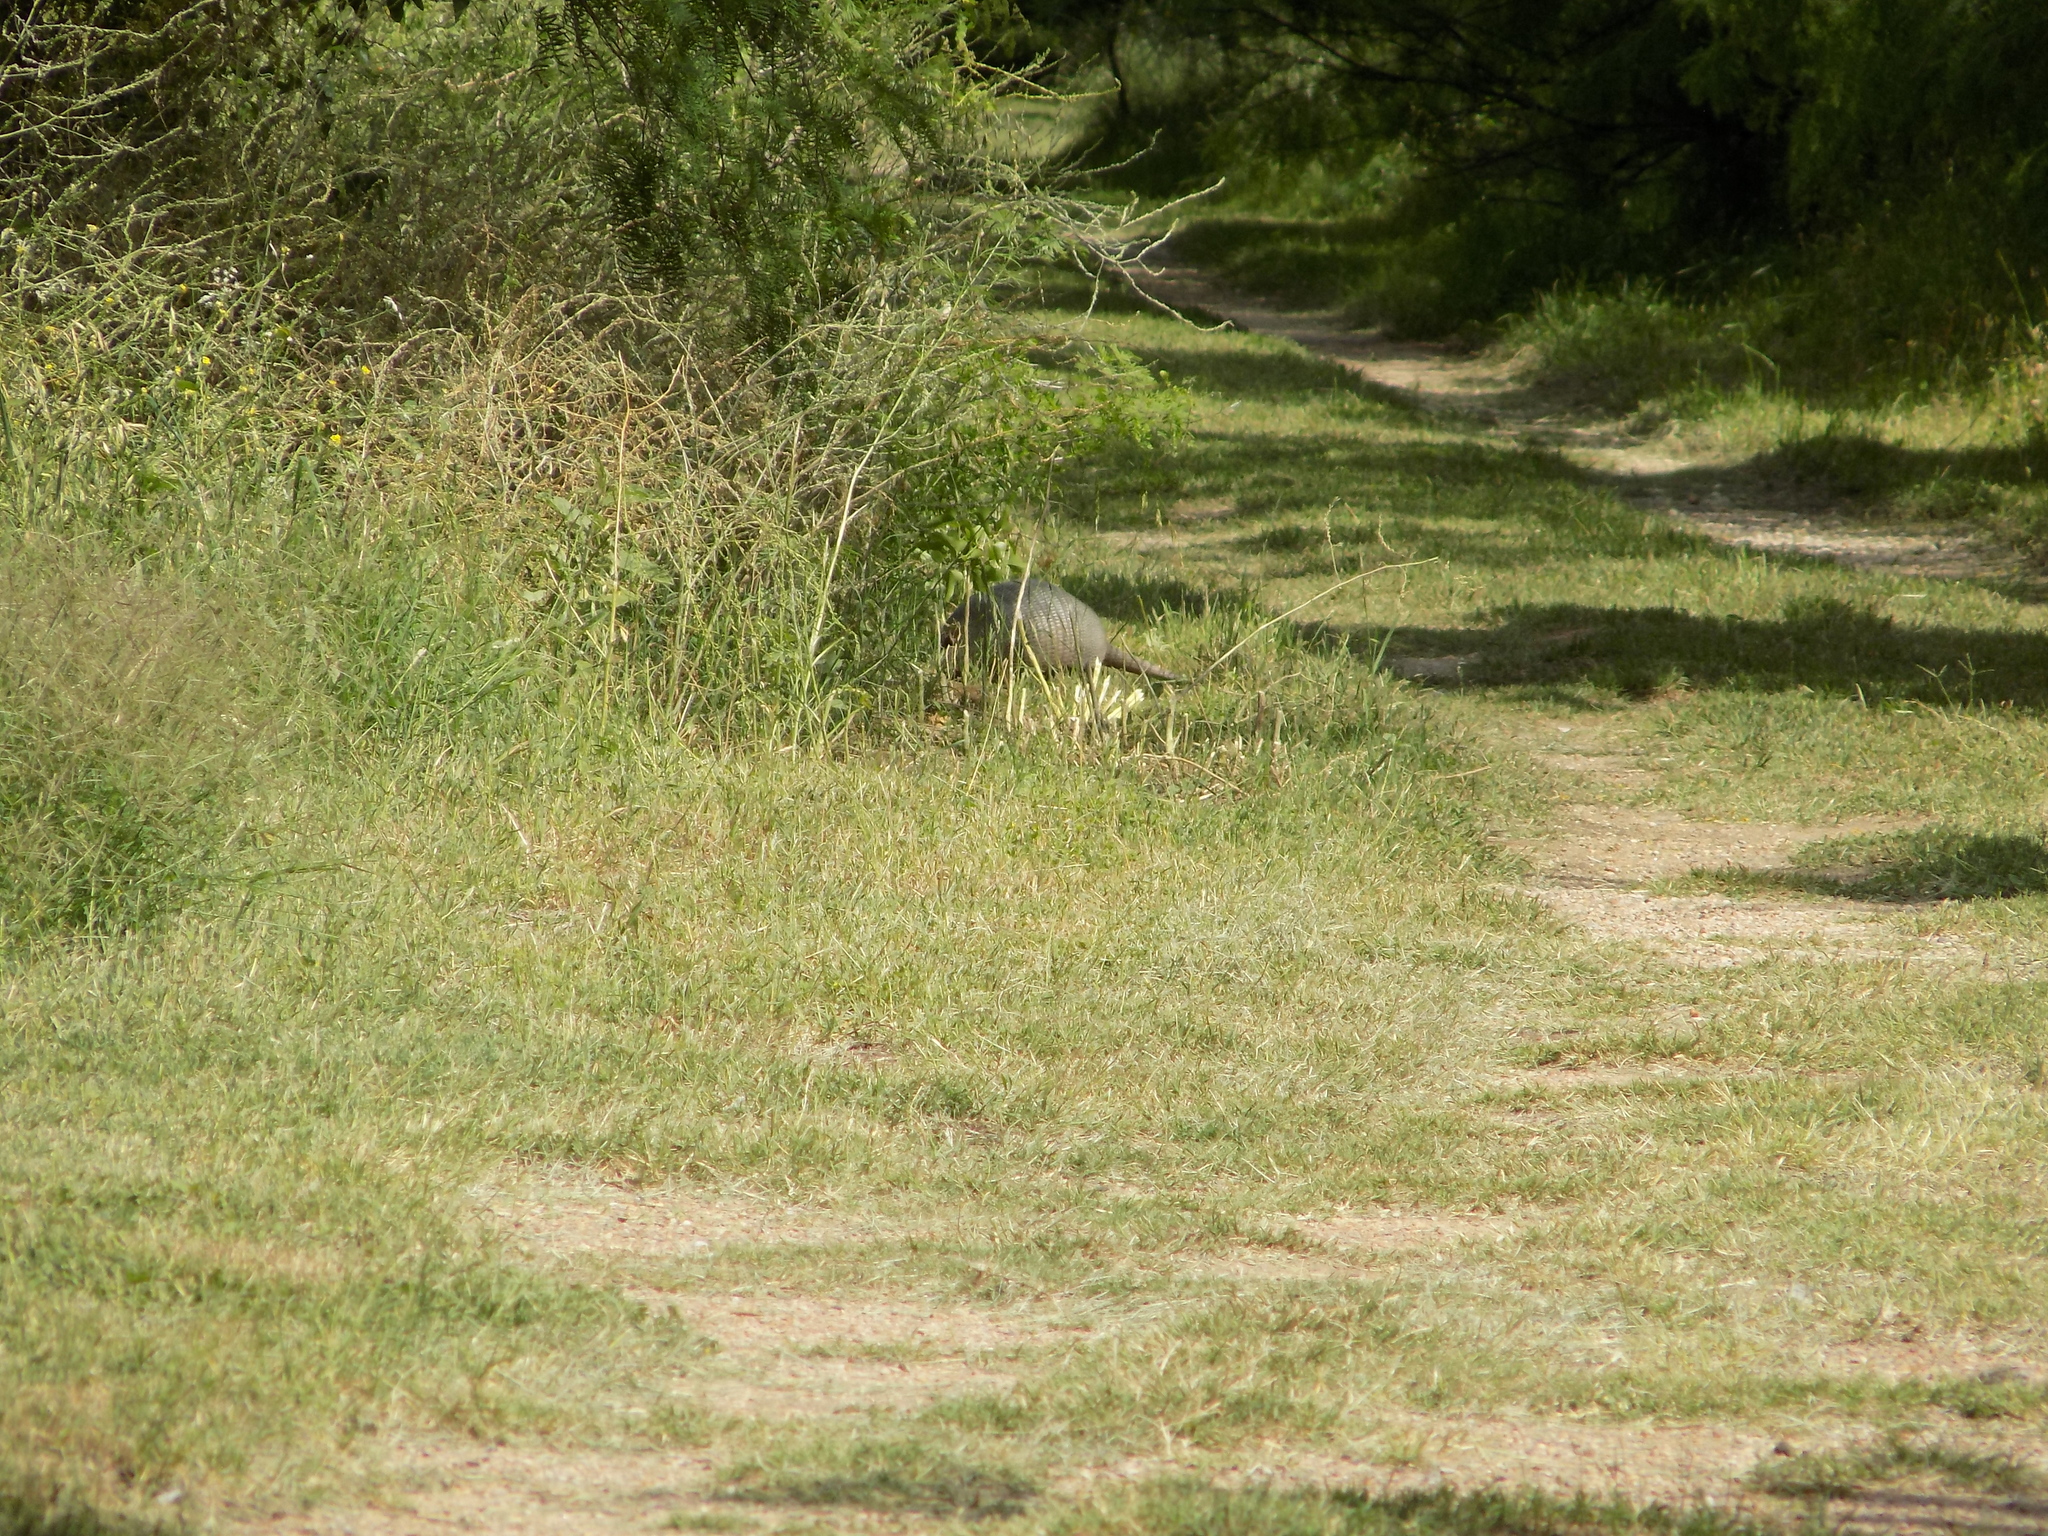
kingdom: Animalia
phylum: Chordata
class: Mammalia
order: Cingulata
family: Dasypodidae
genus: Dasypus
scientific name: Dasypus novemcinctus
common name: Nine-banded armadillo
